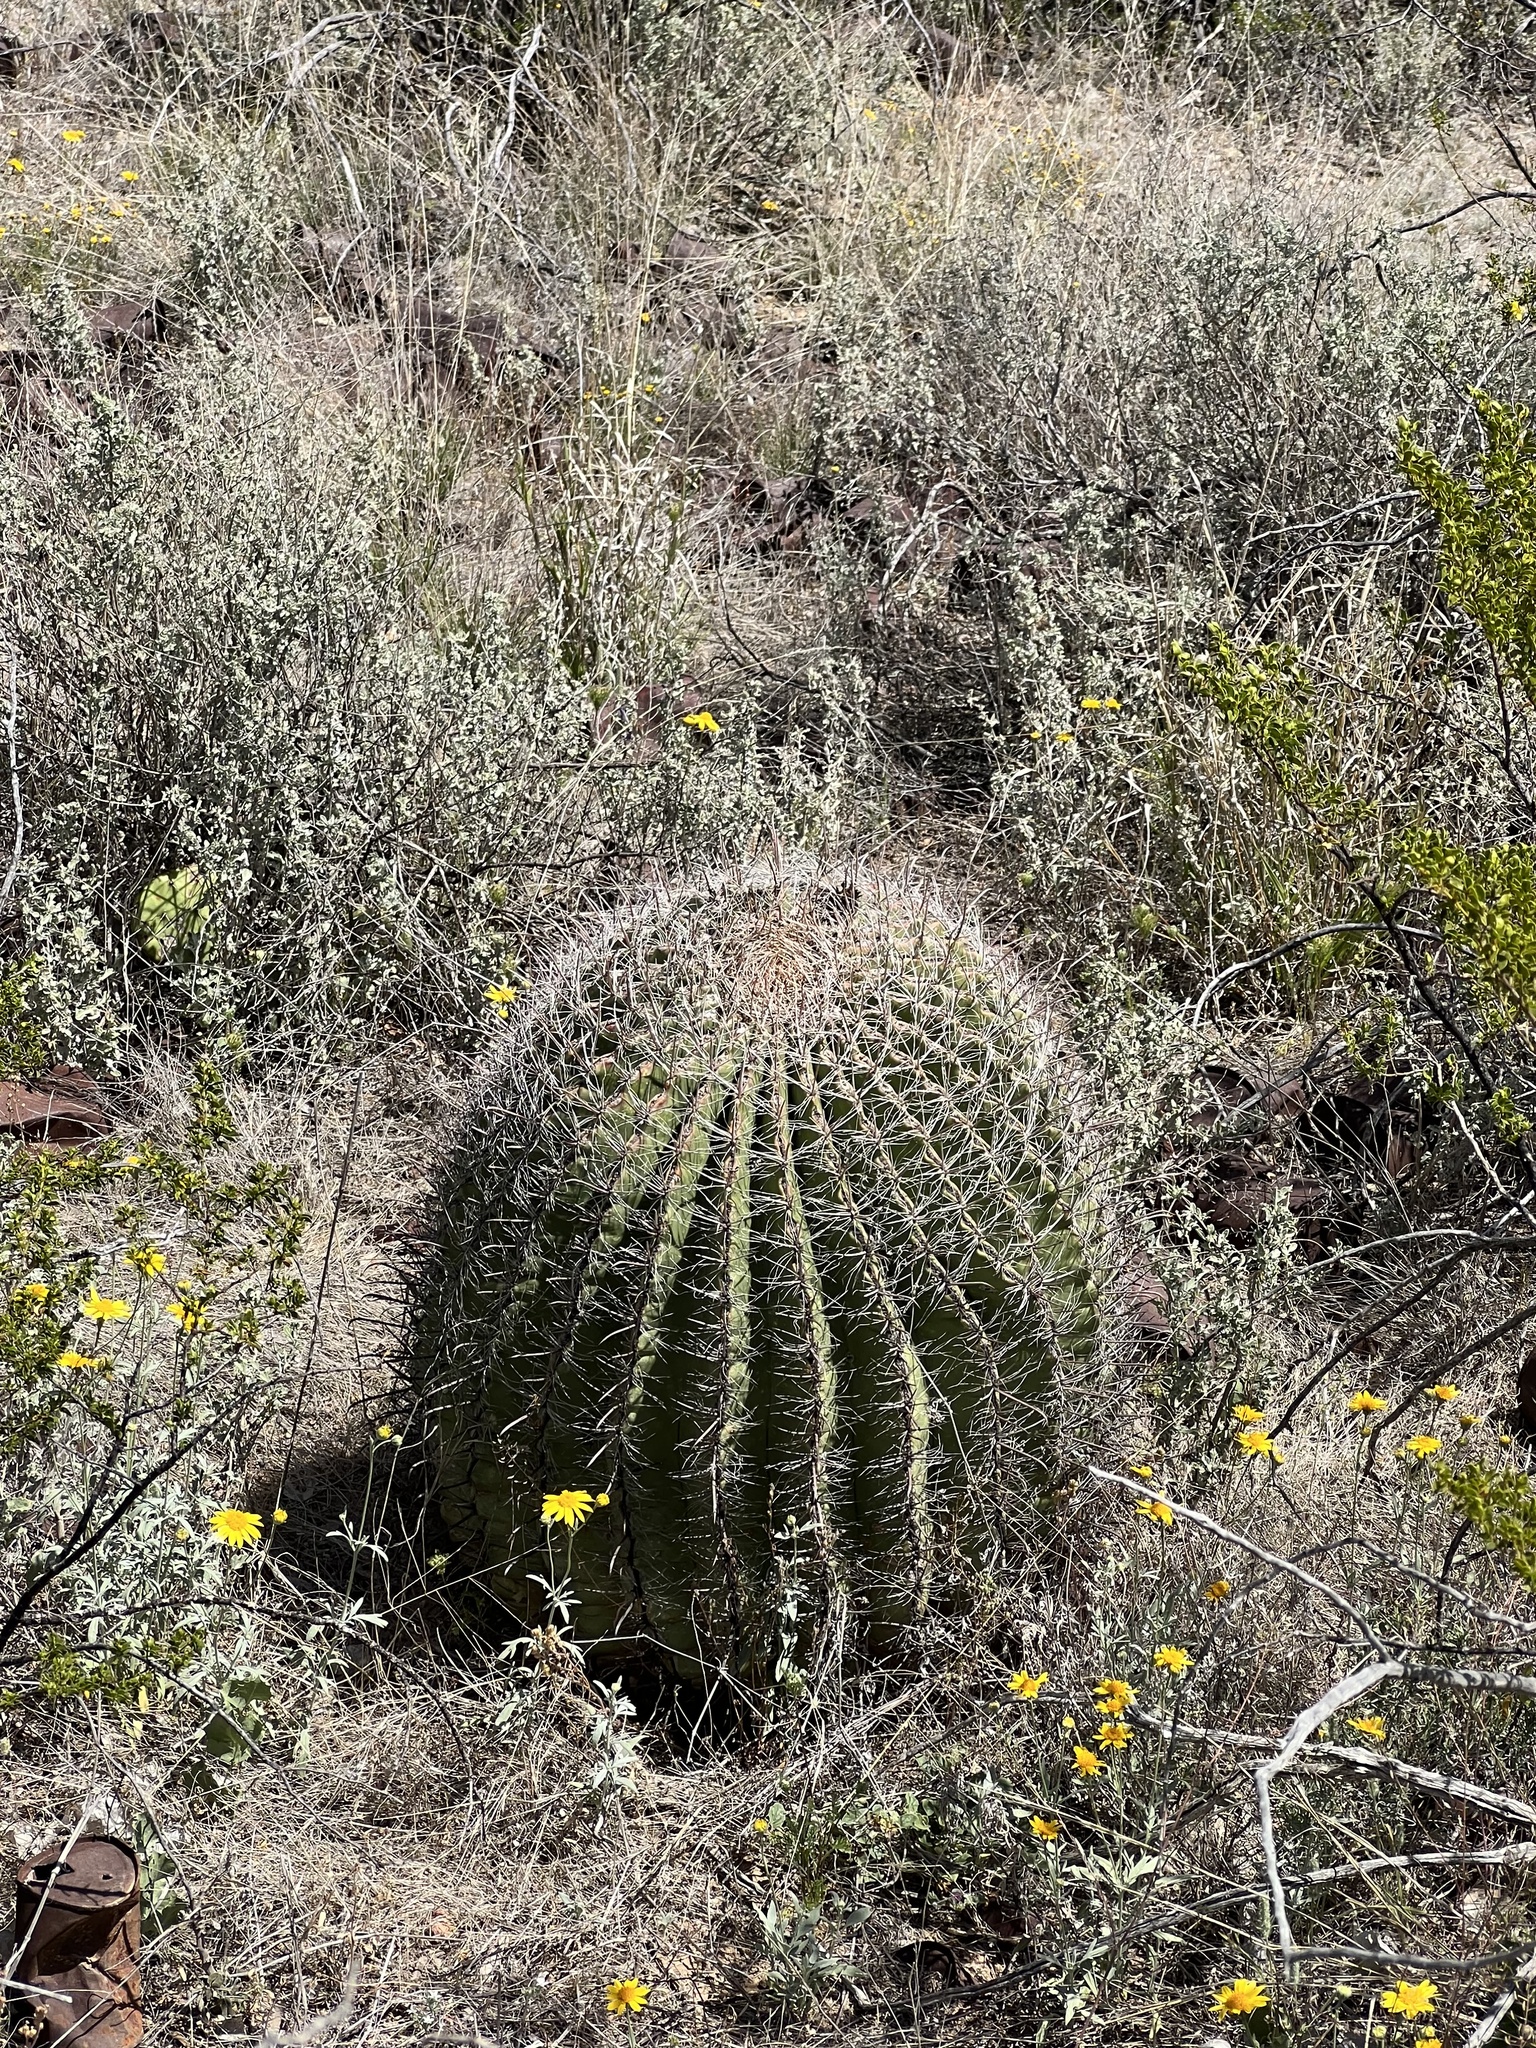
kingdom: Plantae
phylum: Tracheophyta
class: Magnoliopsida
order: Caryophyllales
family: Cactaceae
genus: Ferocactus
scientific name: Ferocactus wislizeni
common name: Candy barrel cactus
